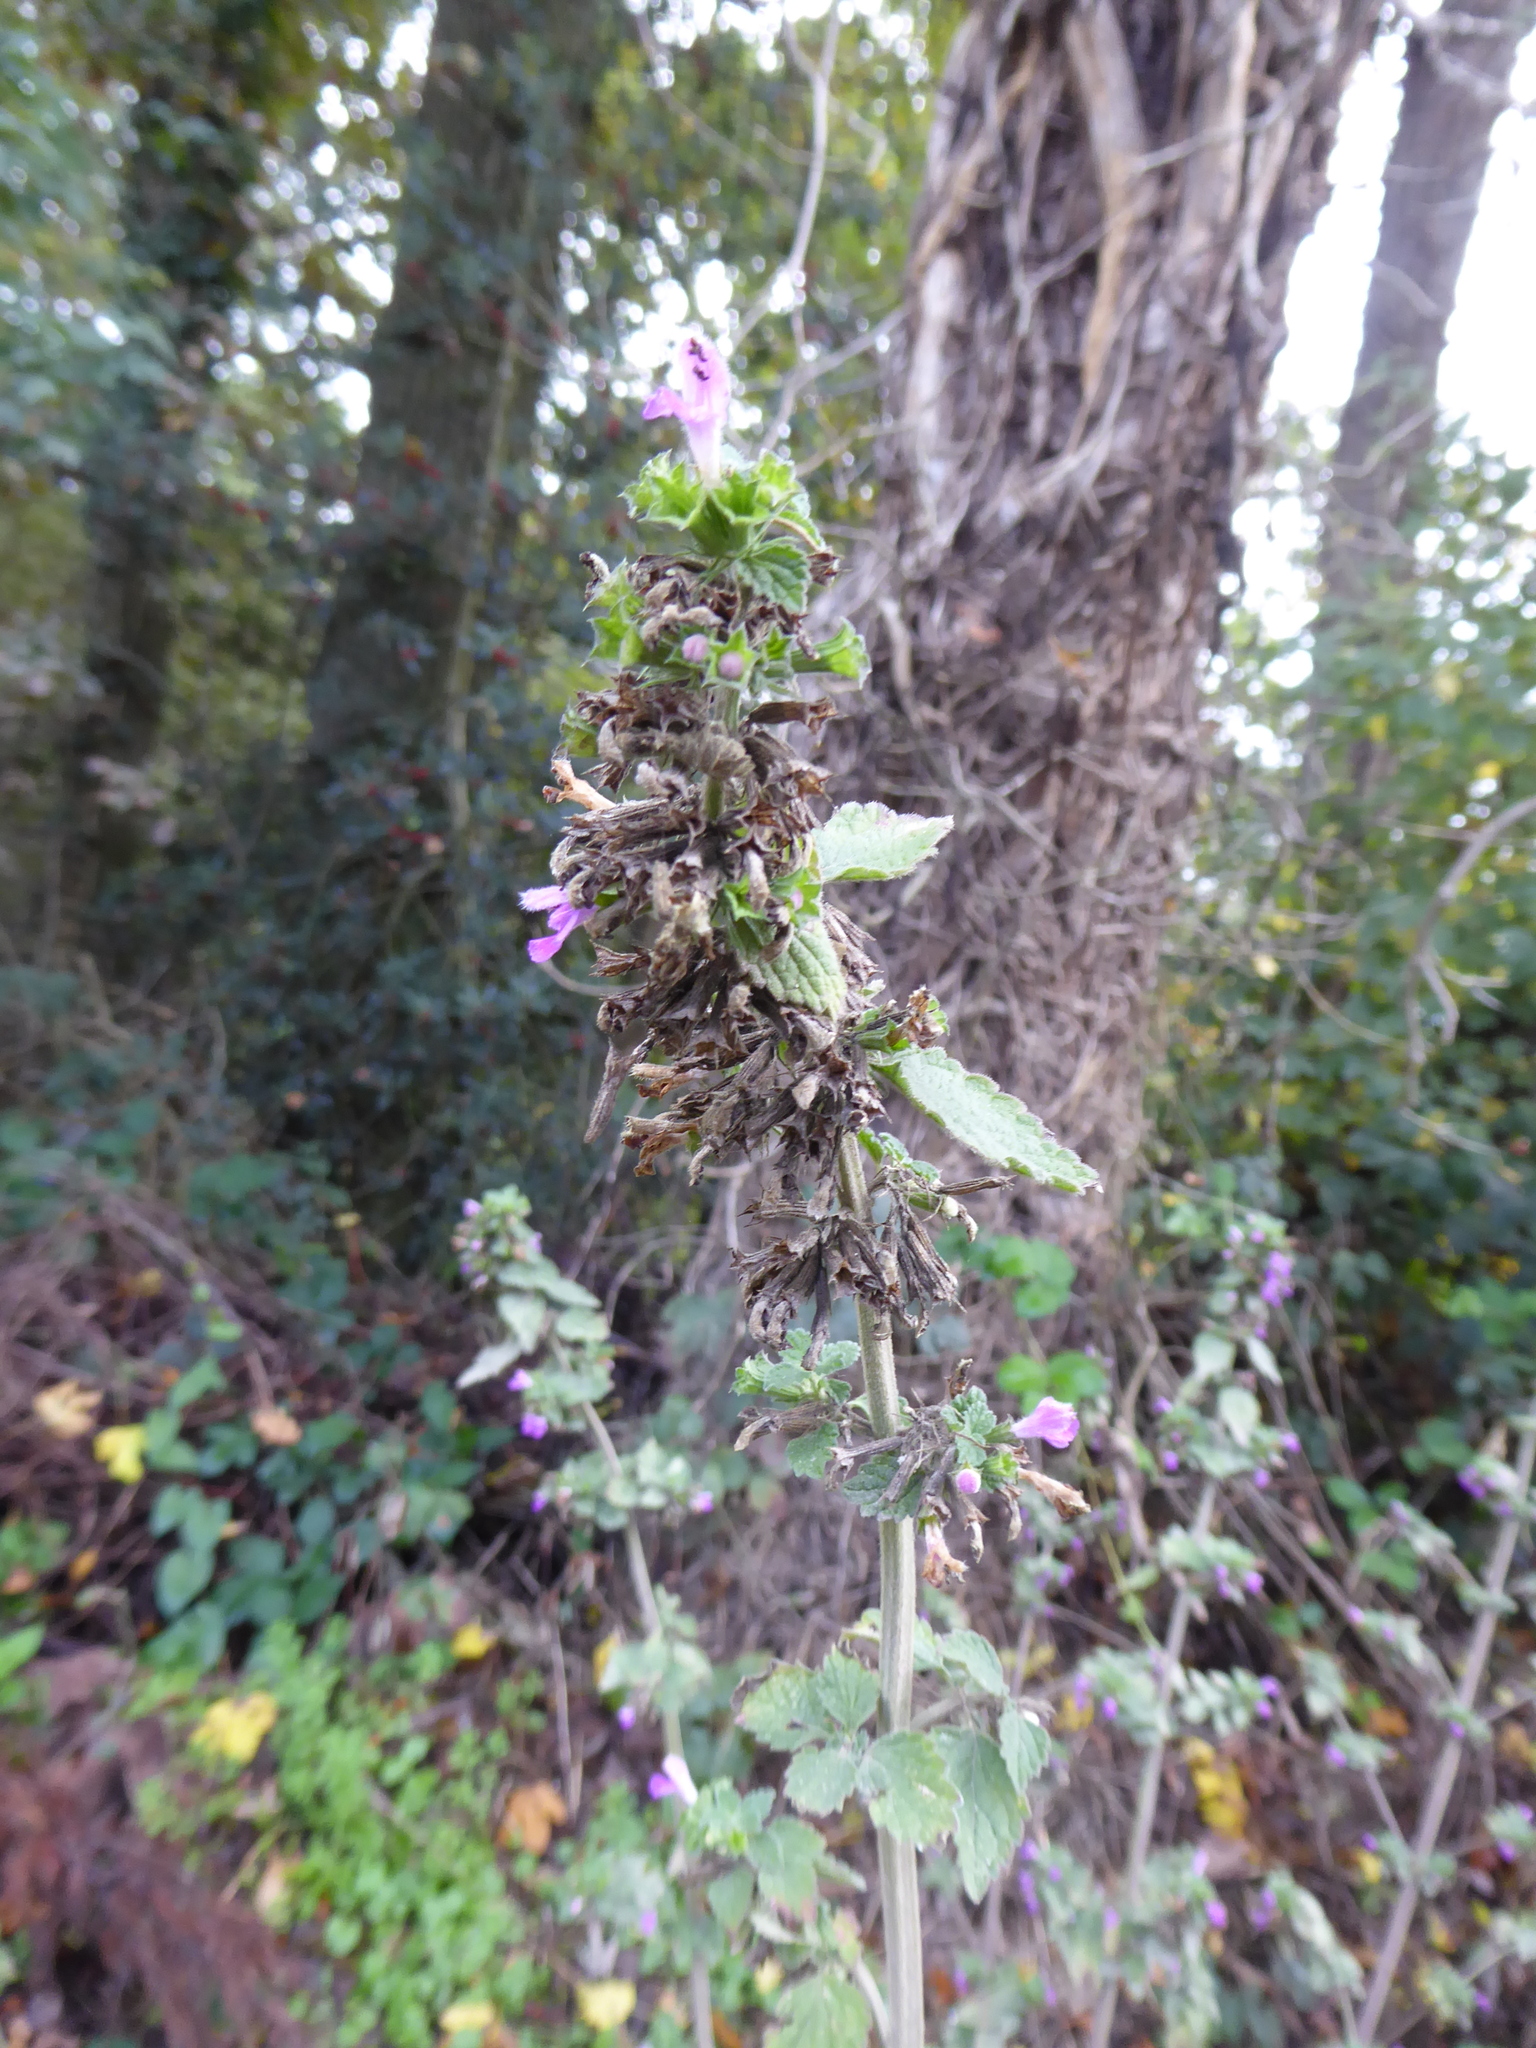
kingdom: Plantae
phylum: Tracheophyta
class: Magnoliopsida
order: Lamiales
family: Lamiaceae
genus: Ballota
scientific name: Ballota nigra
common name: Black horehound
